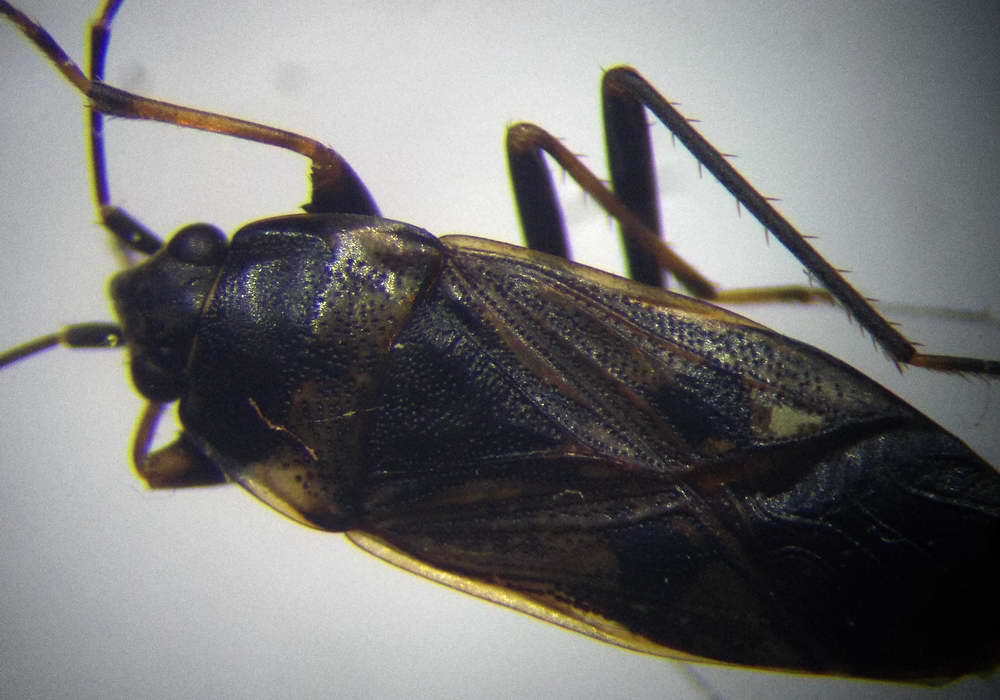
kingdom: Animalia
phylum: Arthropoda
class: Insecta
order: Hemiptera
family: Rhyparochromidae
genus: Rhyparochromus
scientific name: Rhyparochromus vulgaris
